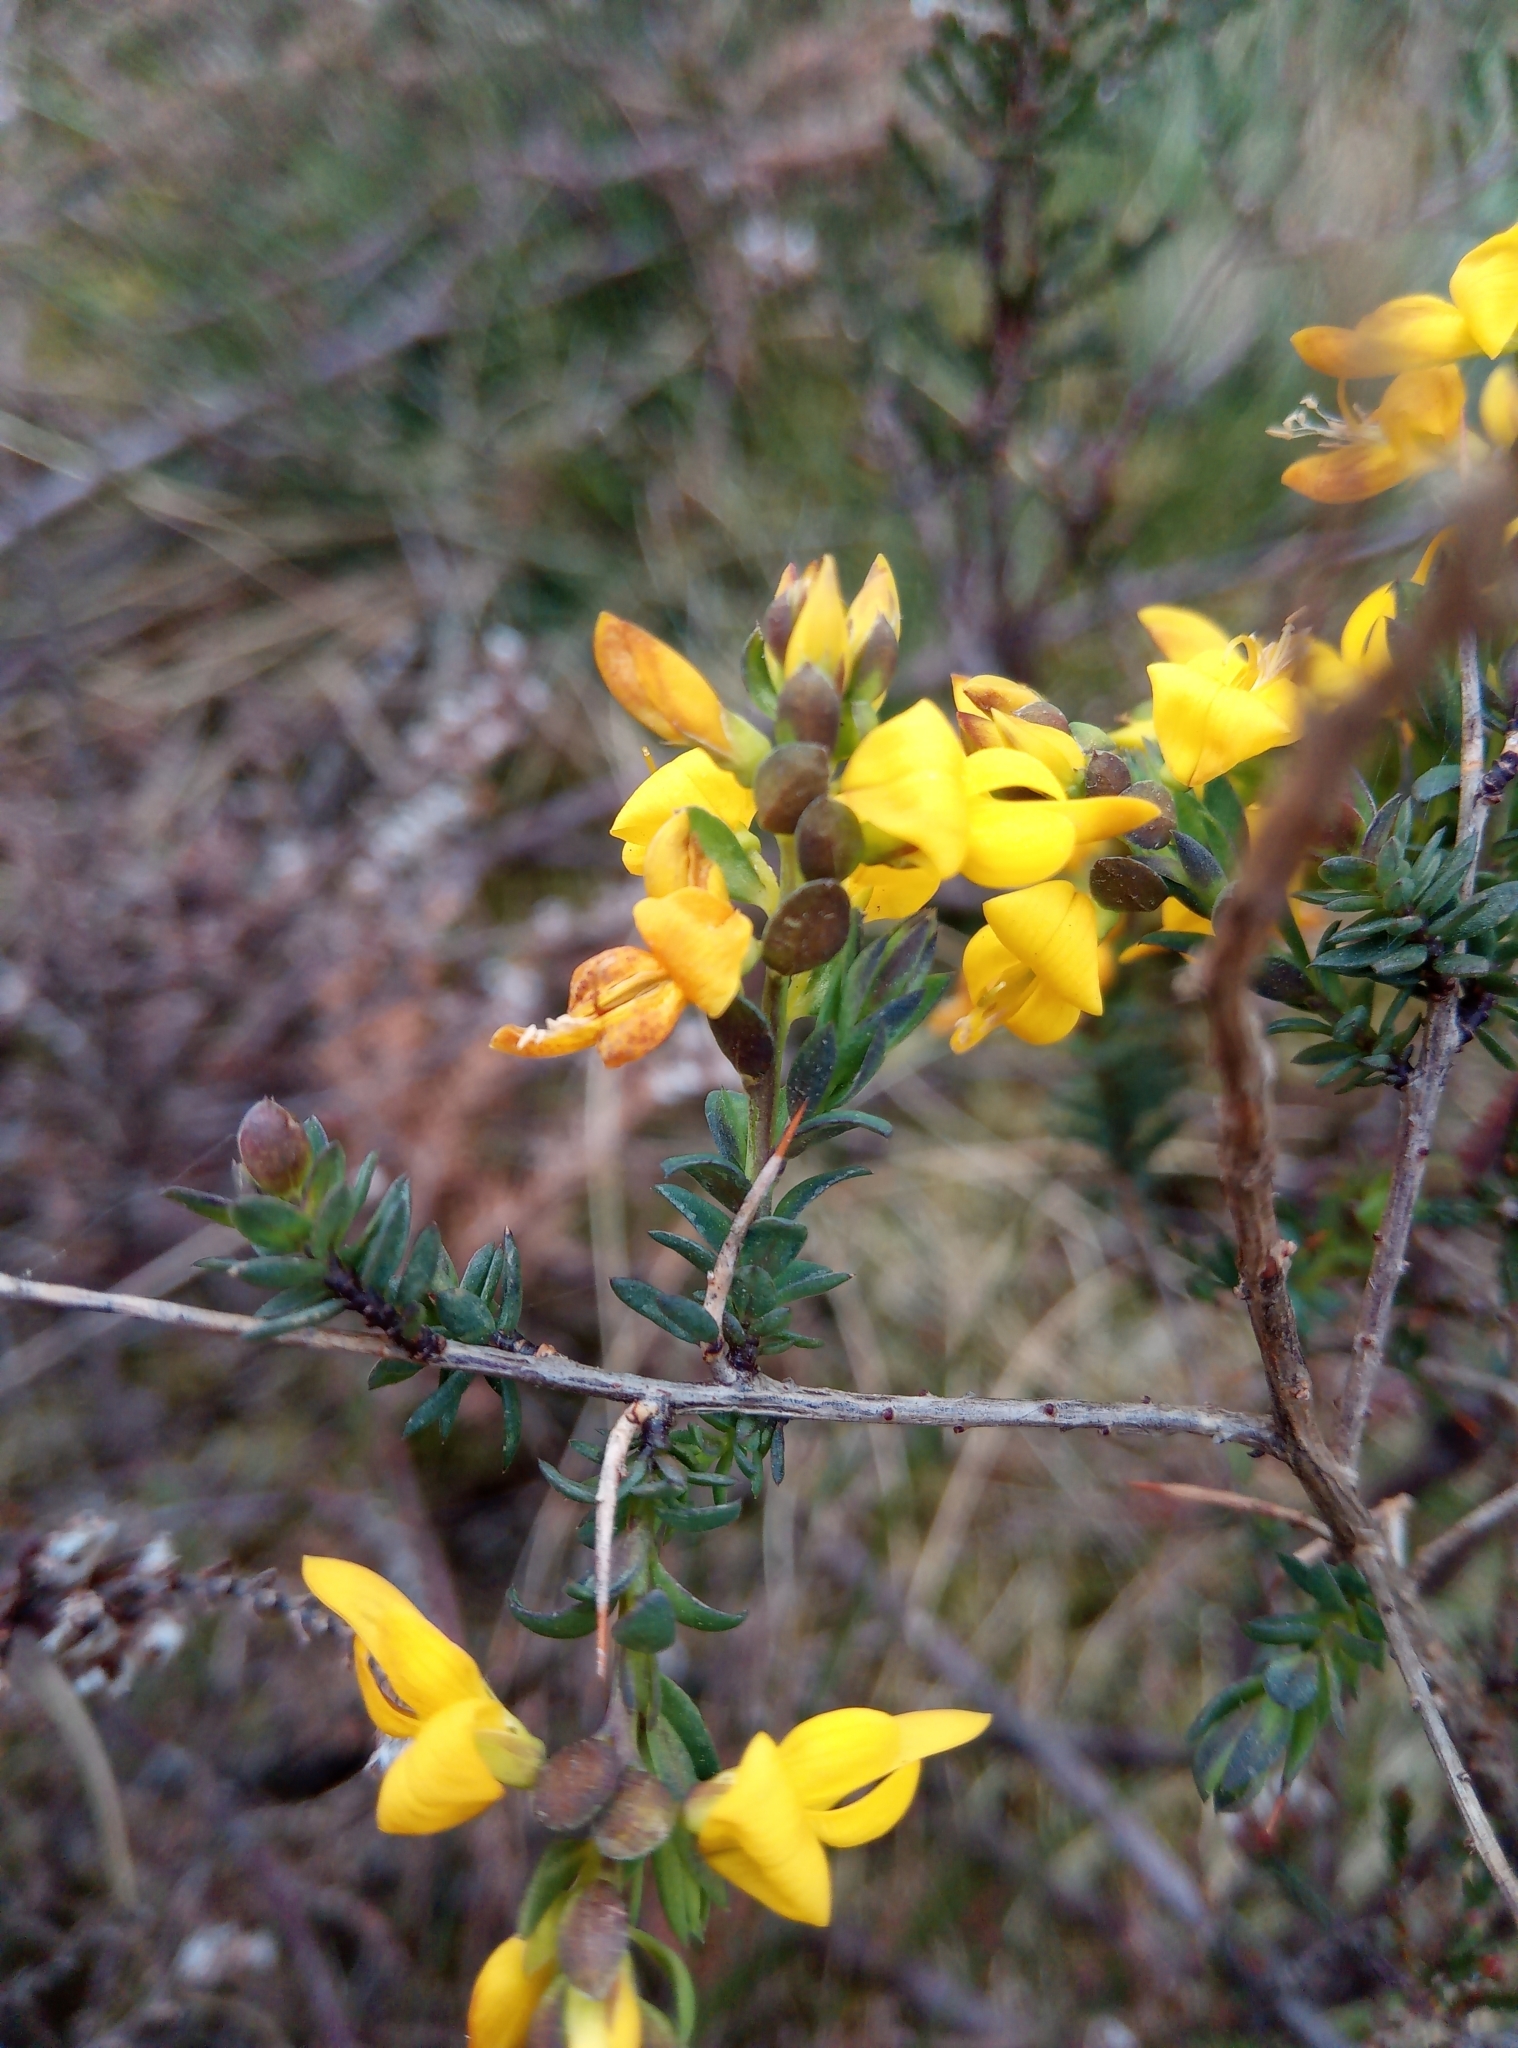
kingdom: Plantae
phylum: Tracheophyta
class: Magnoliopsida
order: Fabales
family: Fabaceae
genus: Genista
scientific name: Genista anglica
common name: Petty whin
